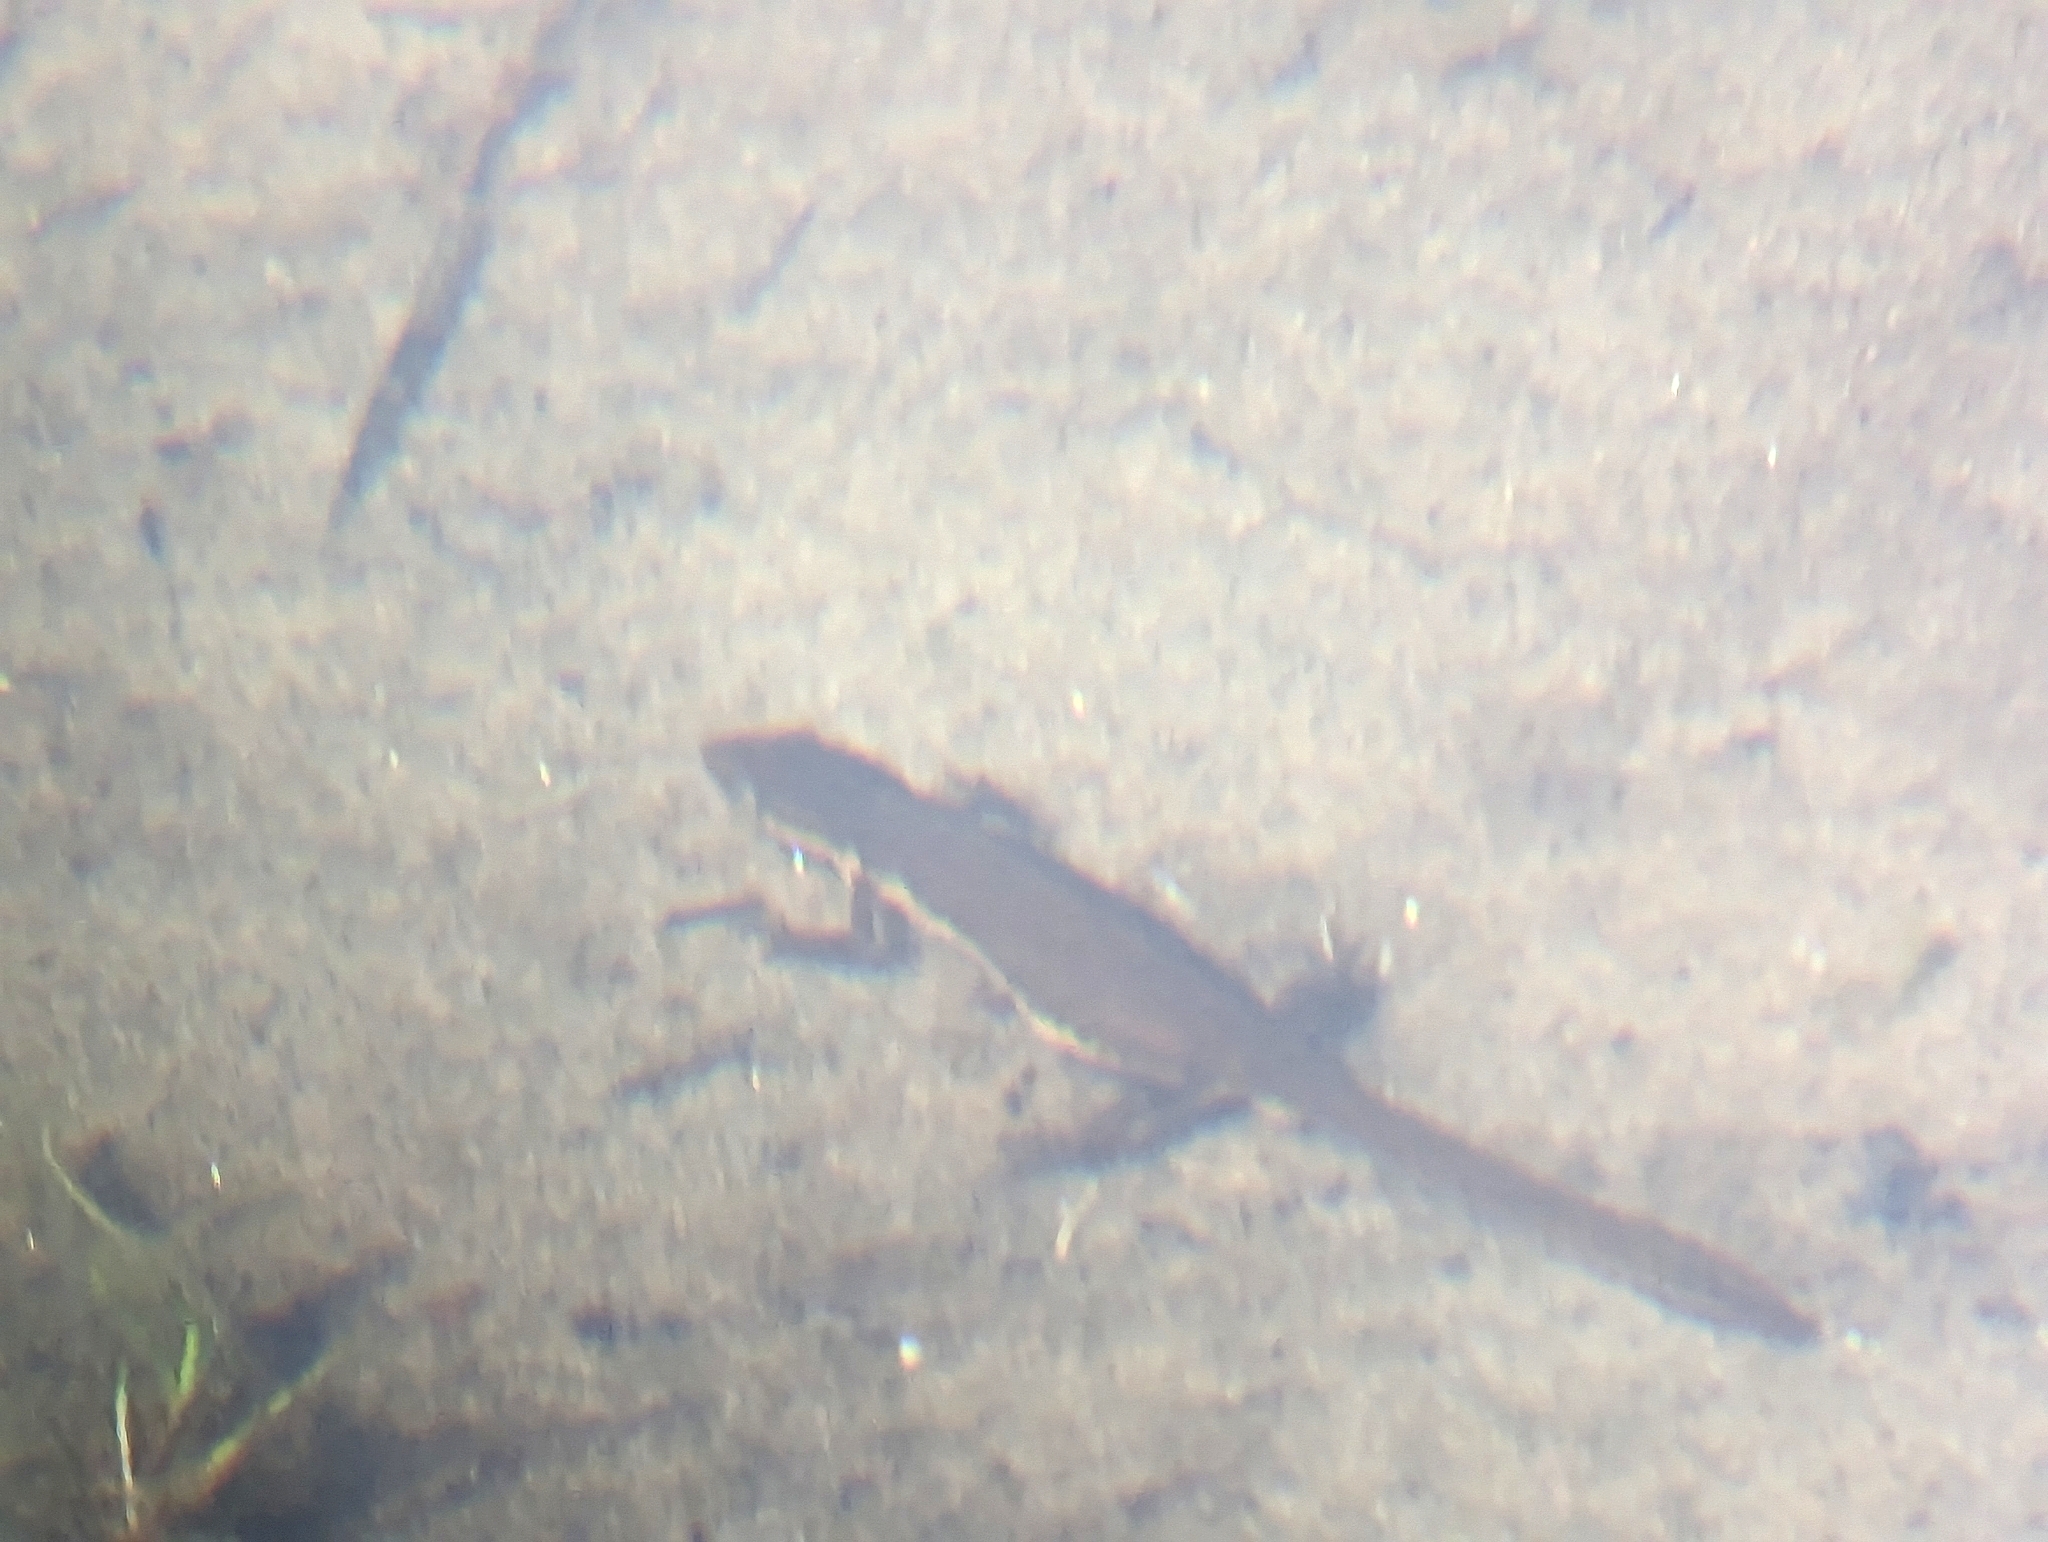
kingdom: Animalia
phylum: Chordata
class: Amphibia
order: Caudata
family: Salamandridae
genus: Notophthalmus
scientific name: Notophthalmus viridescens
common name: Eastern newt
